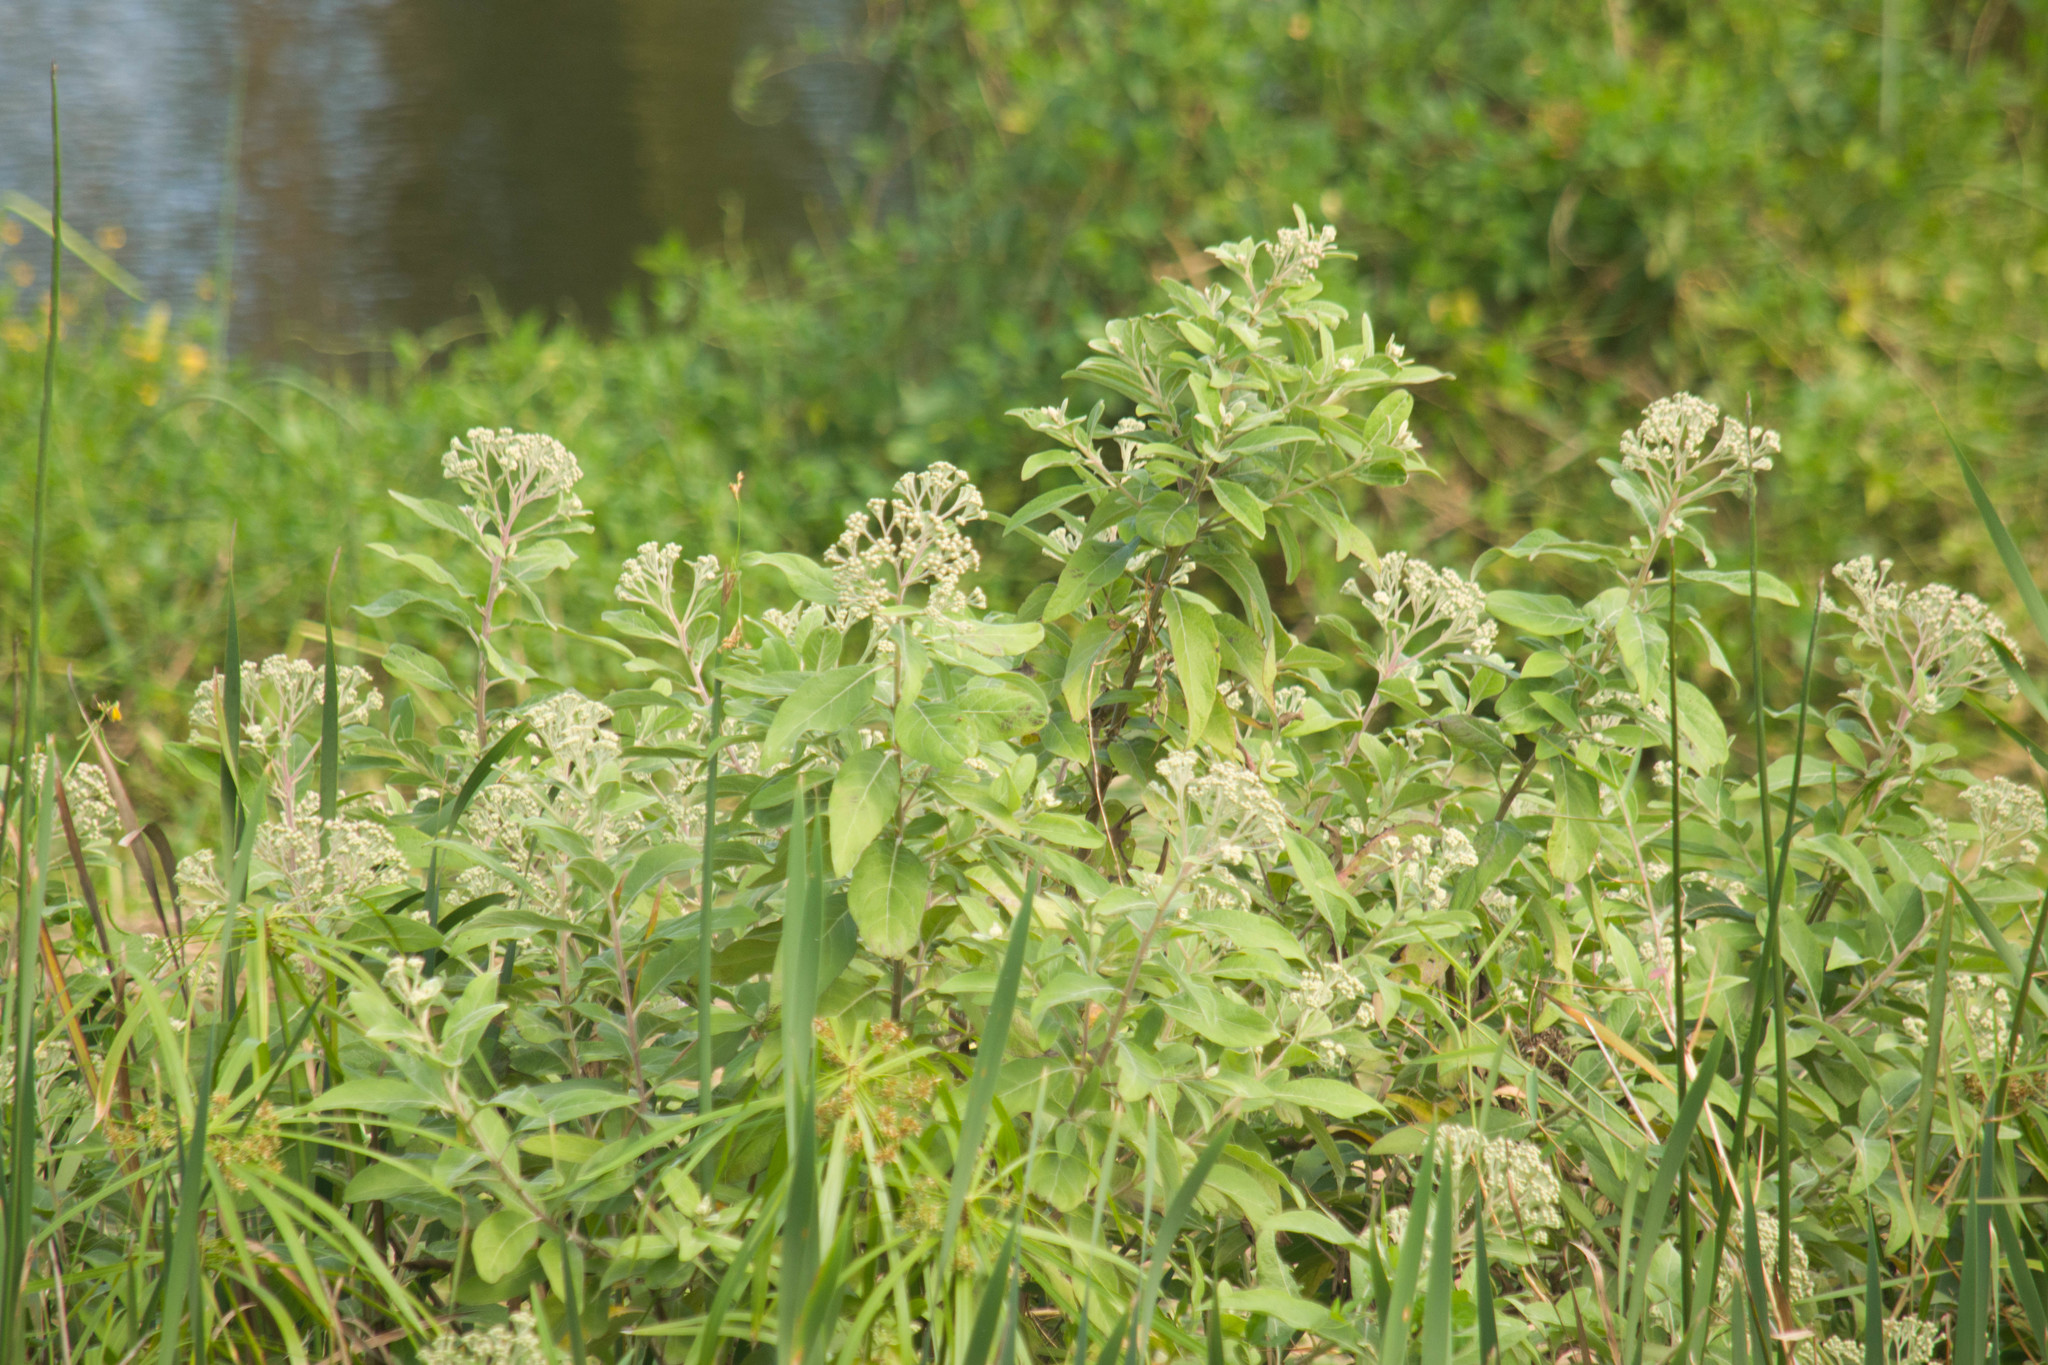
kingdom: Plantae
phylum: Tracheophyta
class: Magnoliopsida
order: Asterales
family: Asteraceae
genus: Pluchea
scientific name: Pluchea carolinensis
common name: Marsh fleabane
